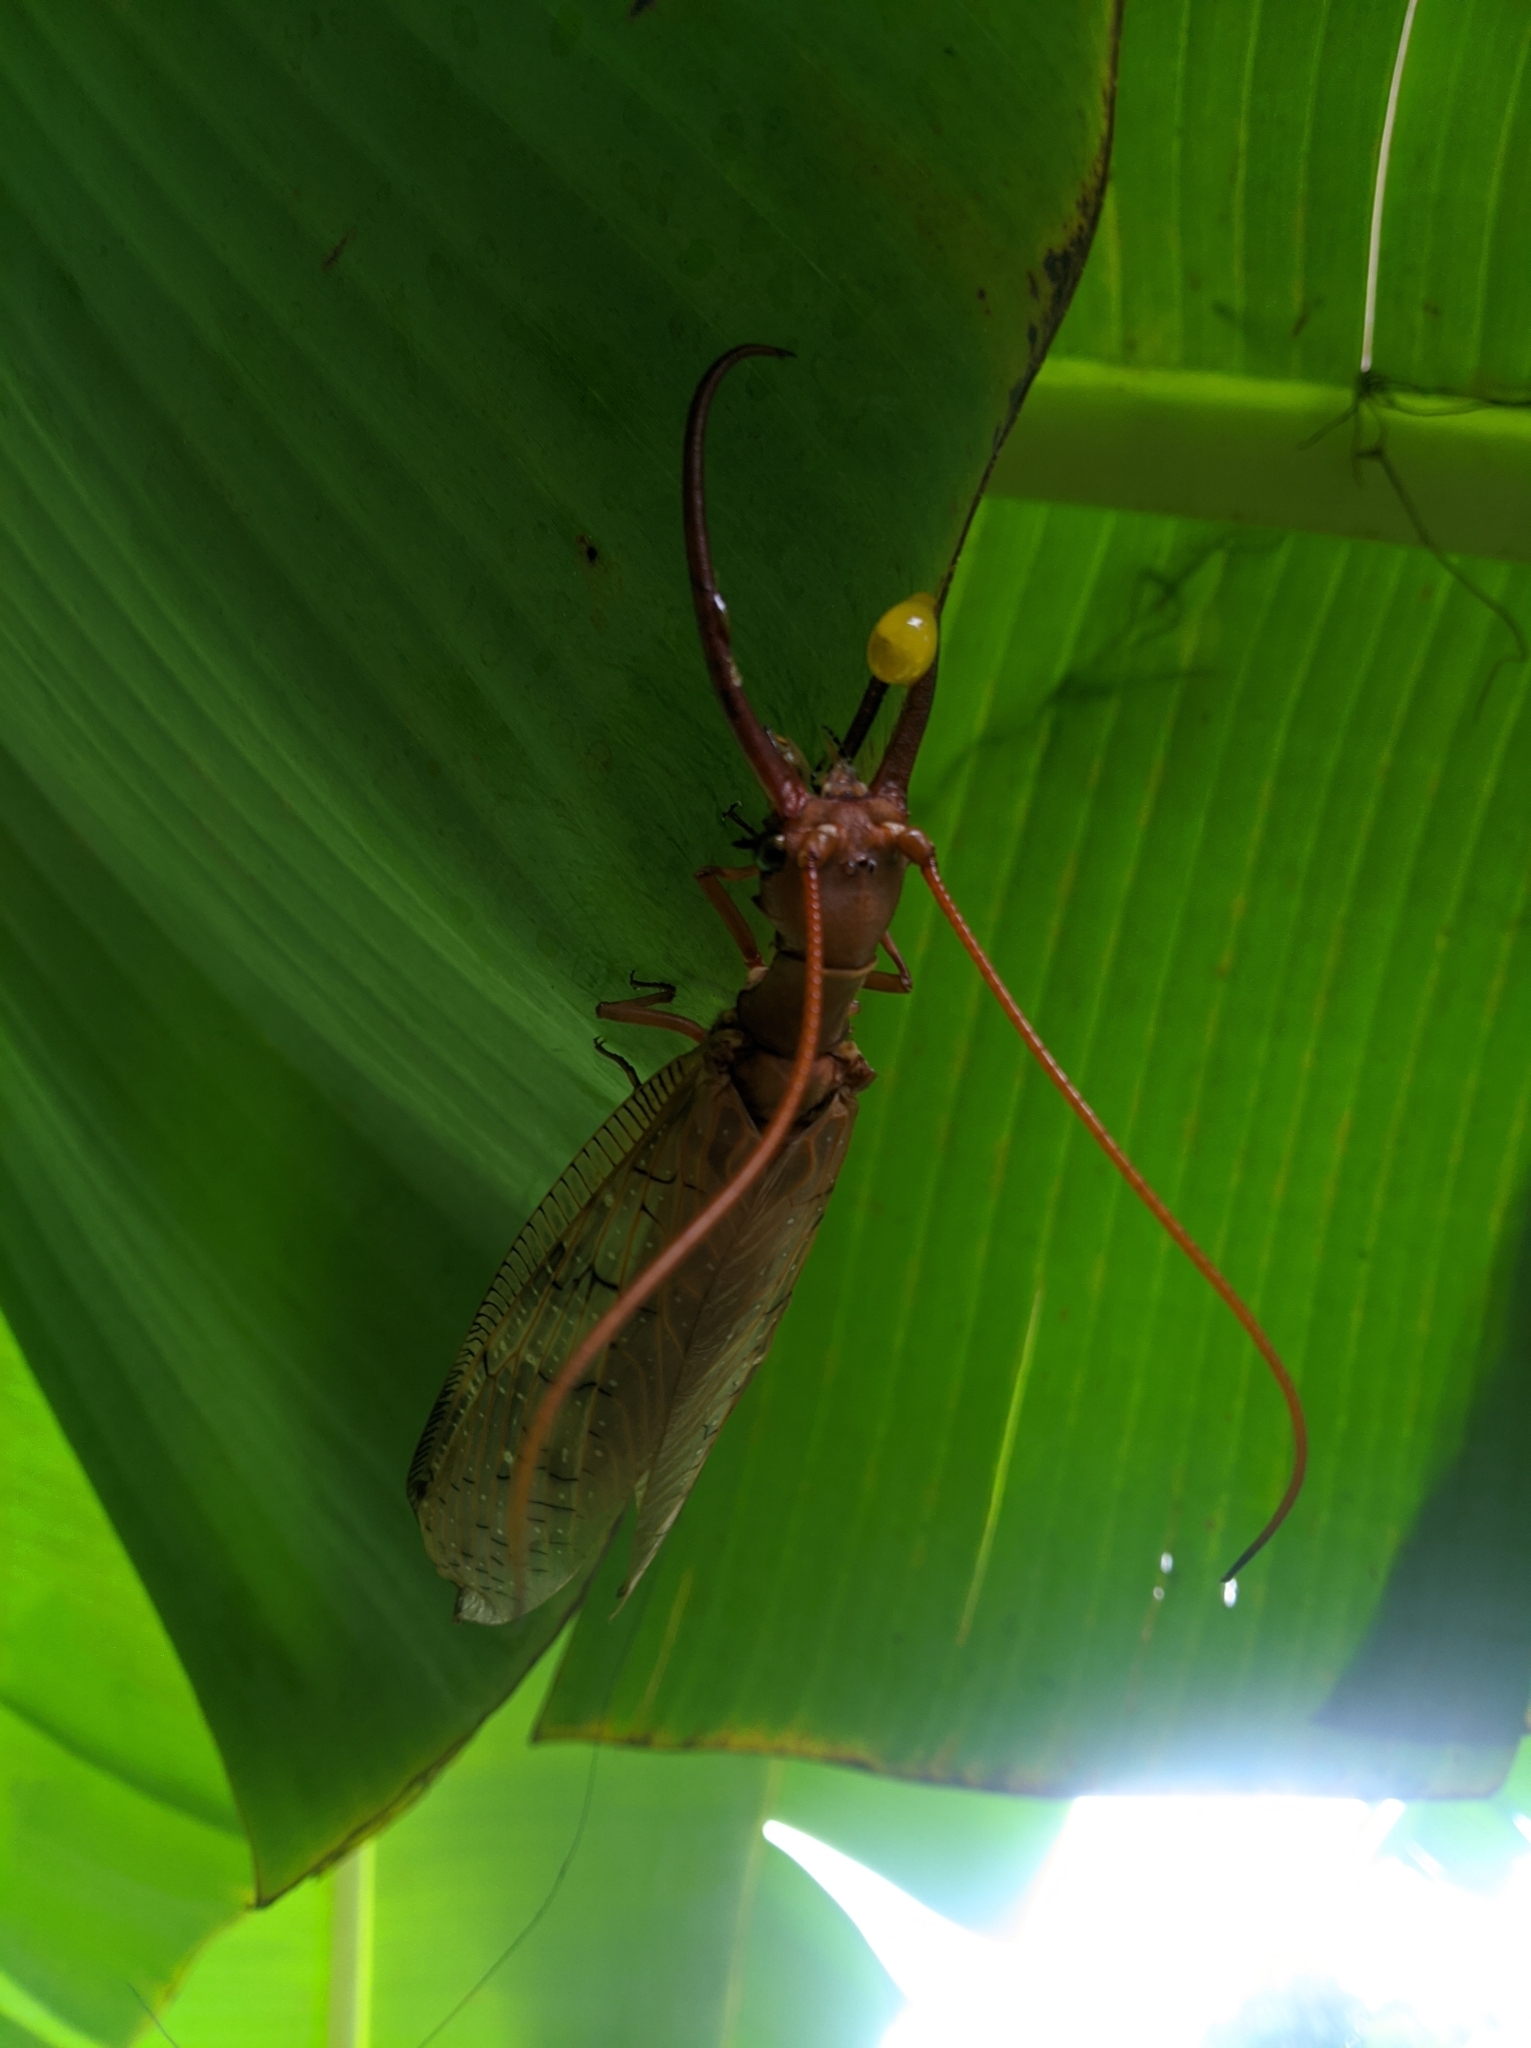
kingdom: Animalia
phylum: Arthropoda
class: Insecta
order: Megaloptera
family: Corydalidae
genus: Corydalus
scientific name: Corydalus armatus
